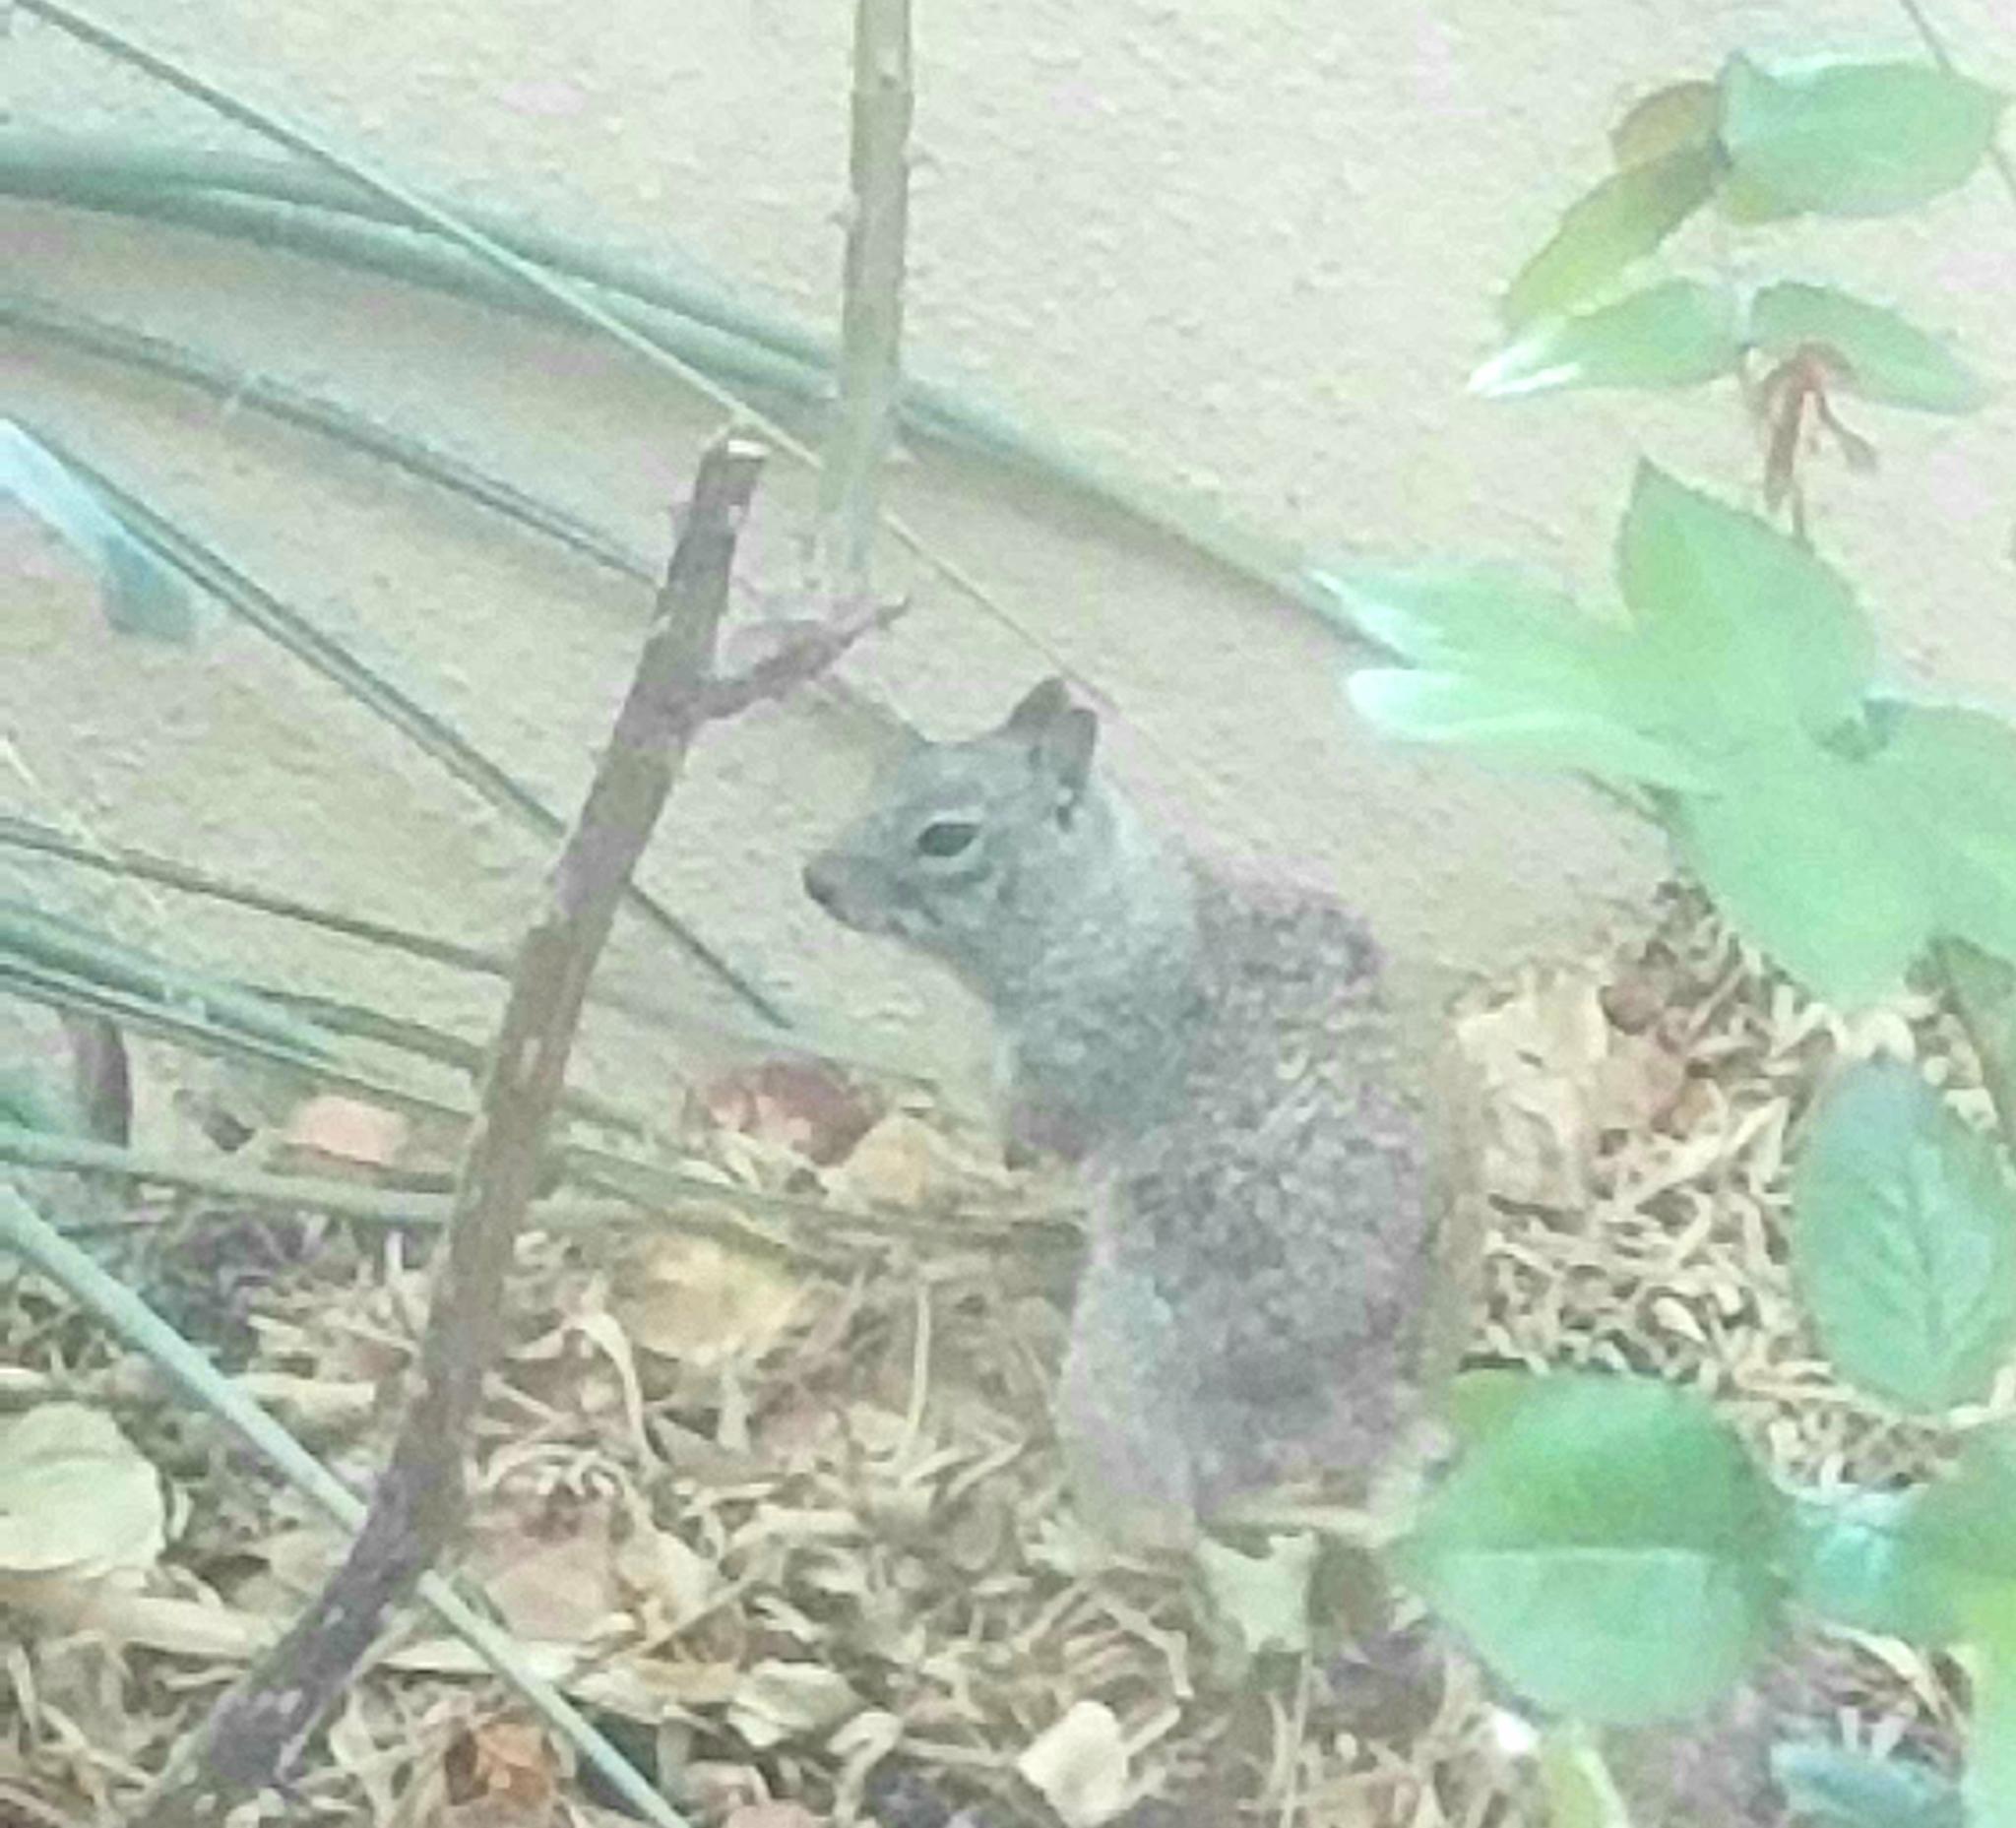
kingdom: Animalia
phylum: Chordata
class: Mammalia
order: Rodentia
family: Sciuridae
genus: Otospermophilus
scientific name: Otospermophilus beecheyi
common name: California ground squirrel
